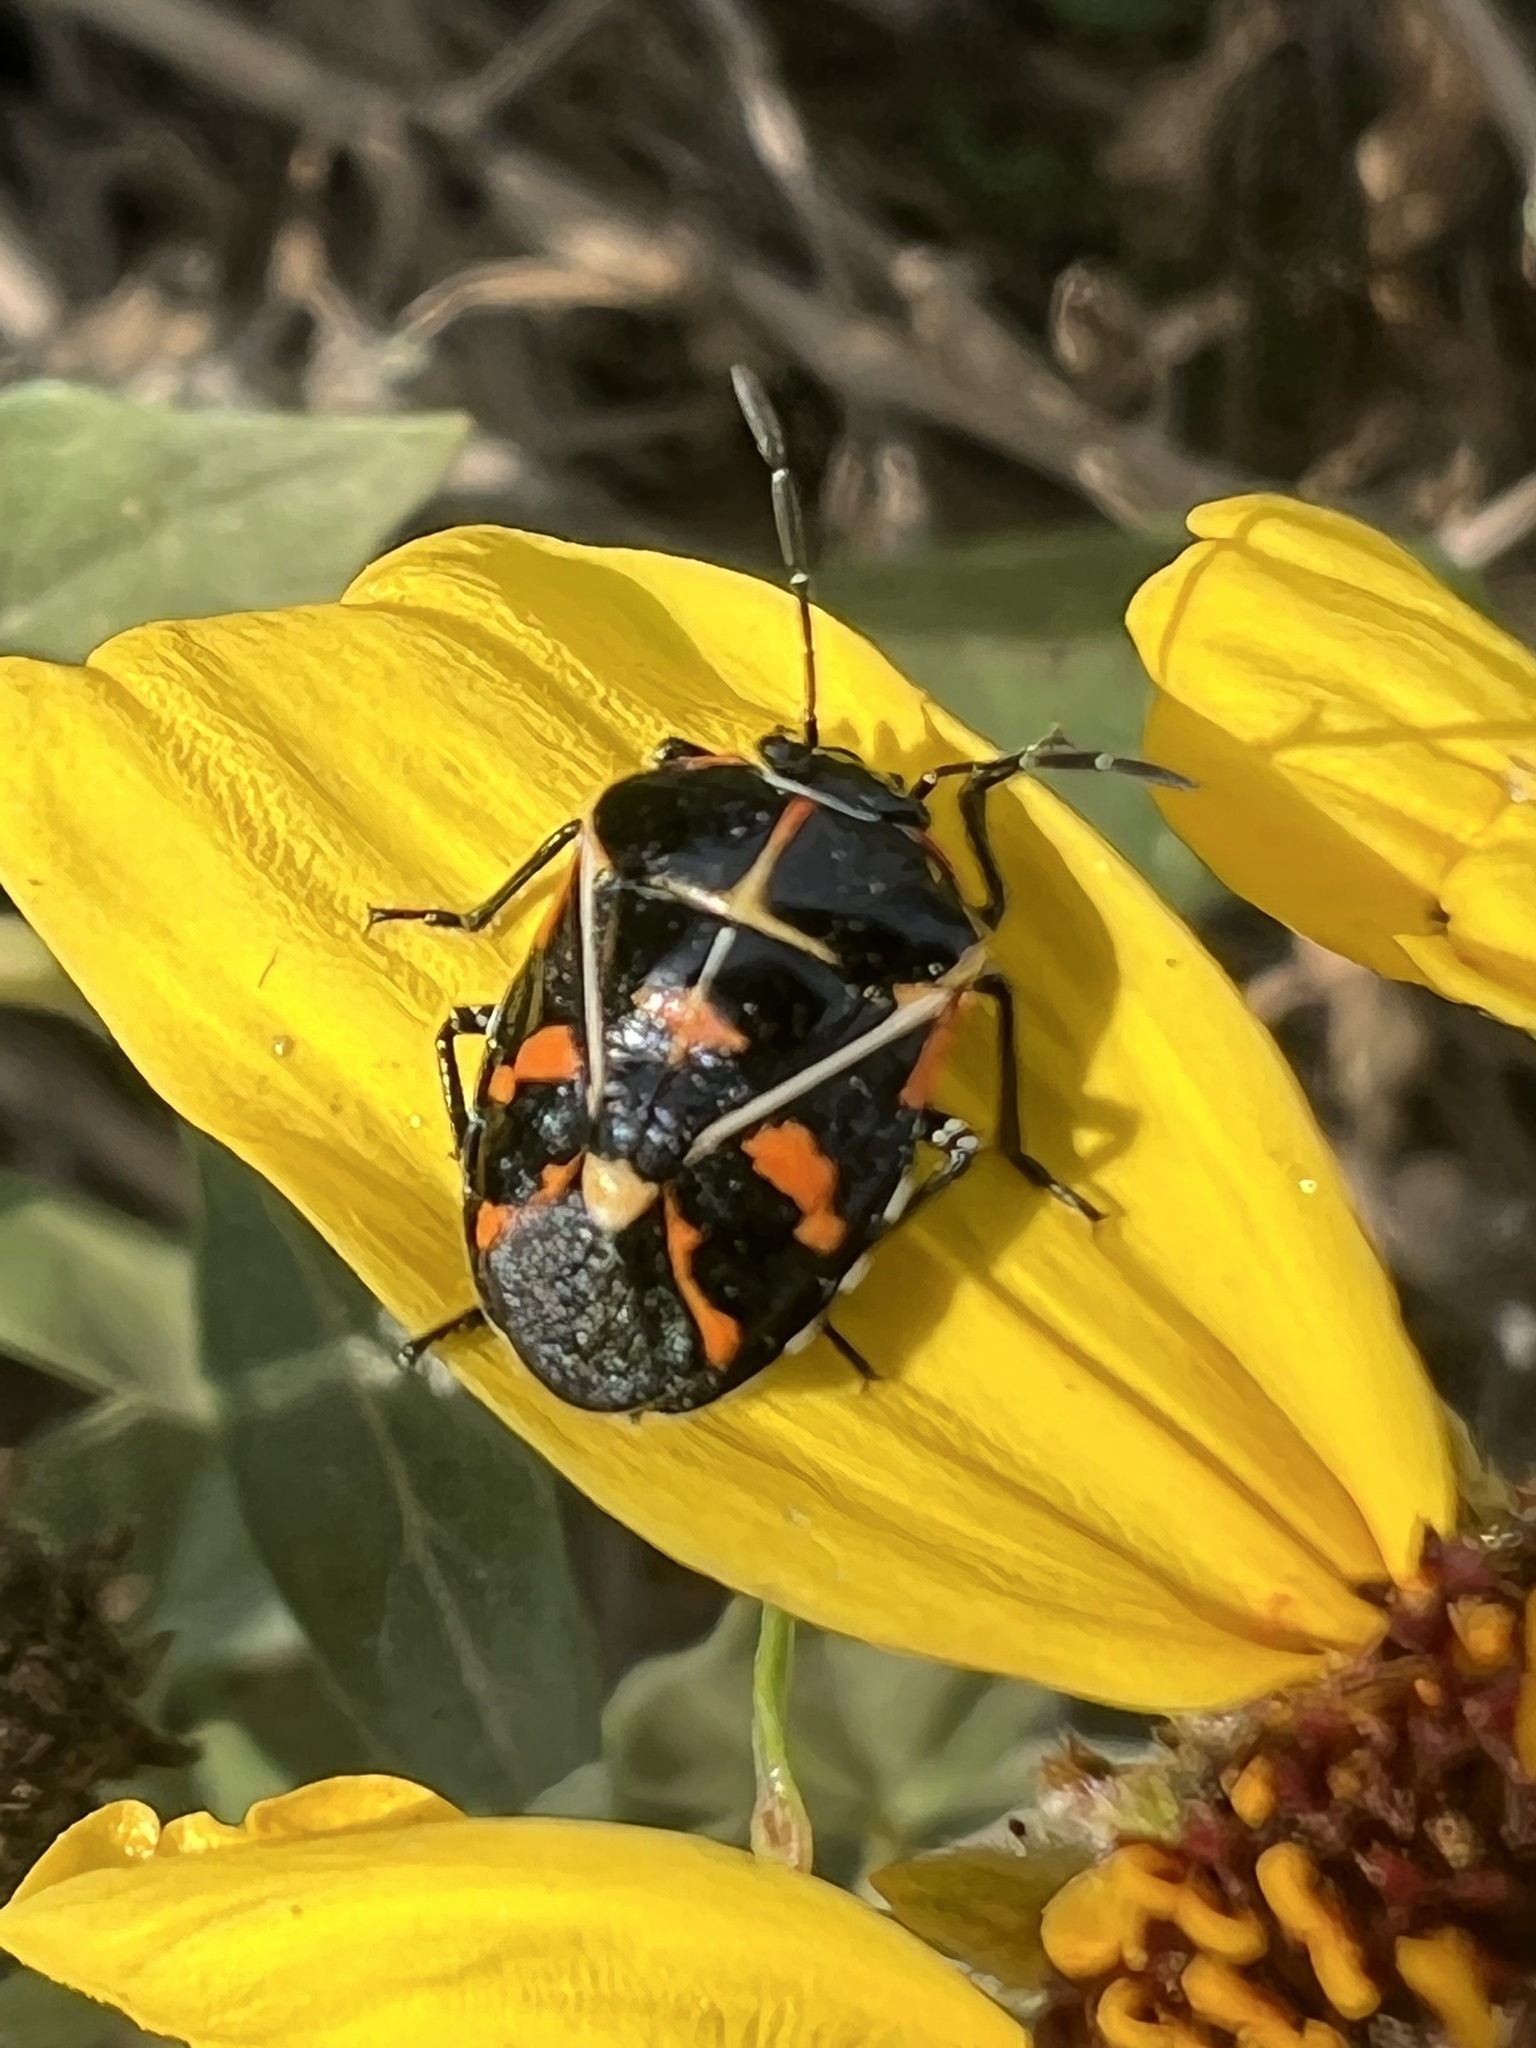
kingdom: Animalia
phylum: Arthropoda
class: Insecta
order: Hemiptera
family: Pentatomidae
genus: Murgantia
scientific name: Murgantia histrionica
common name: Harlequin bug
